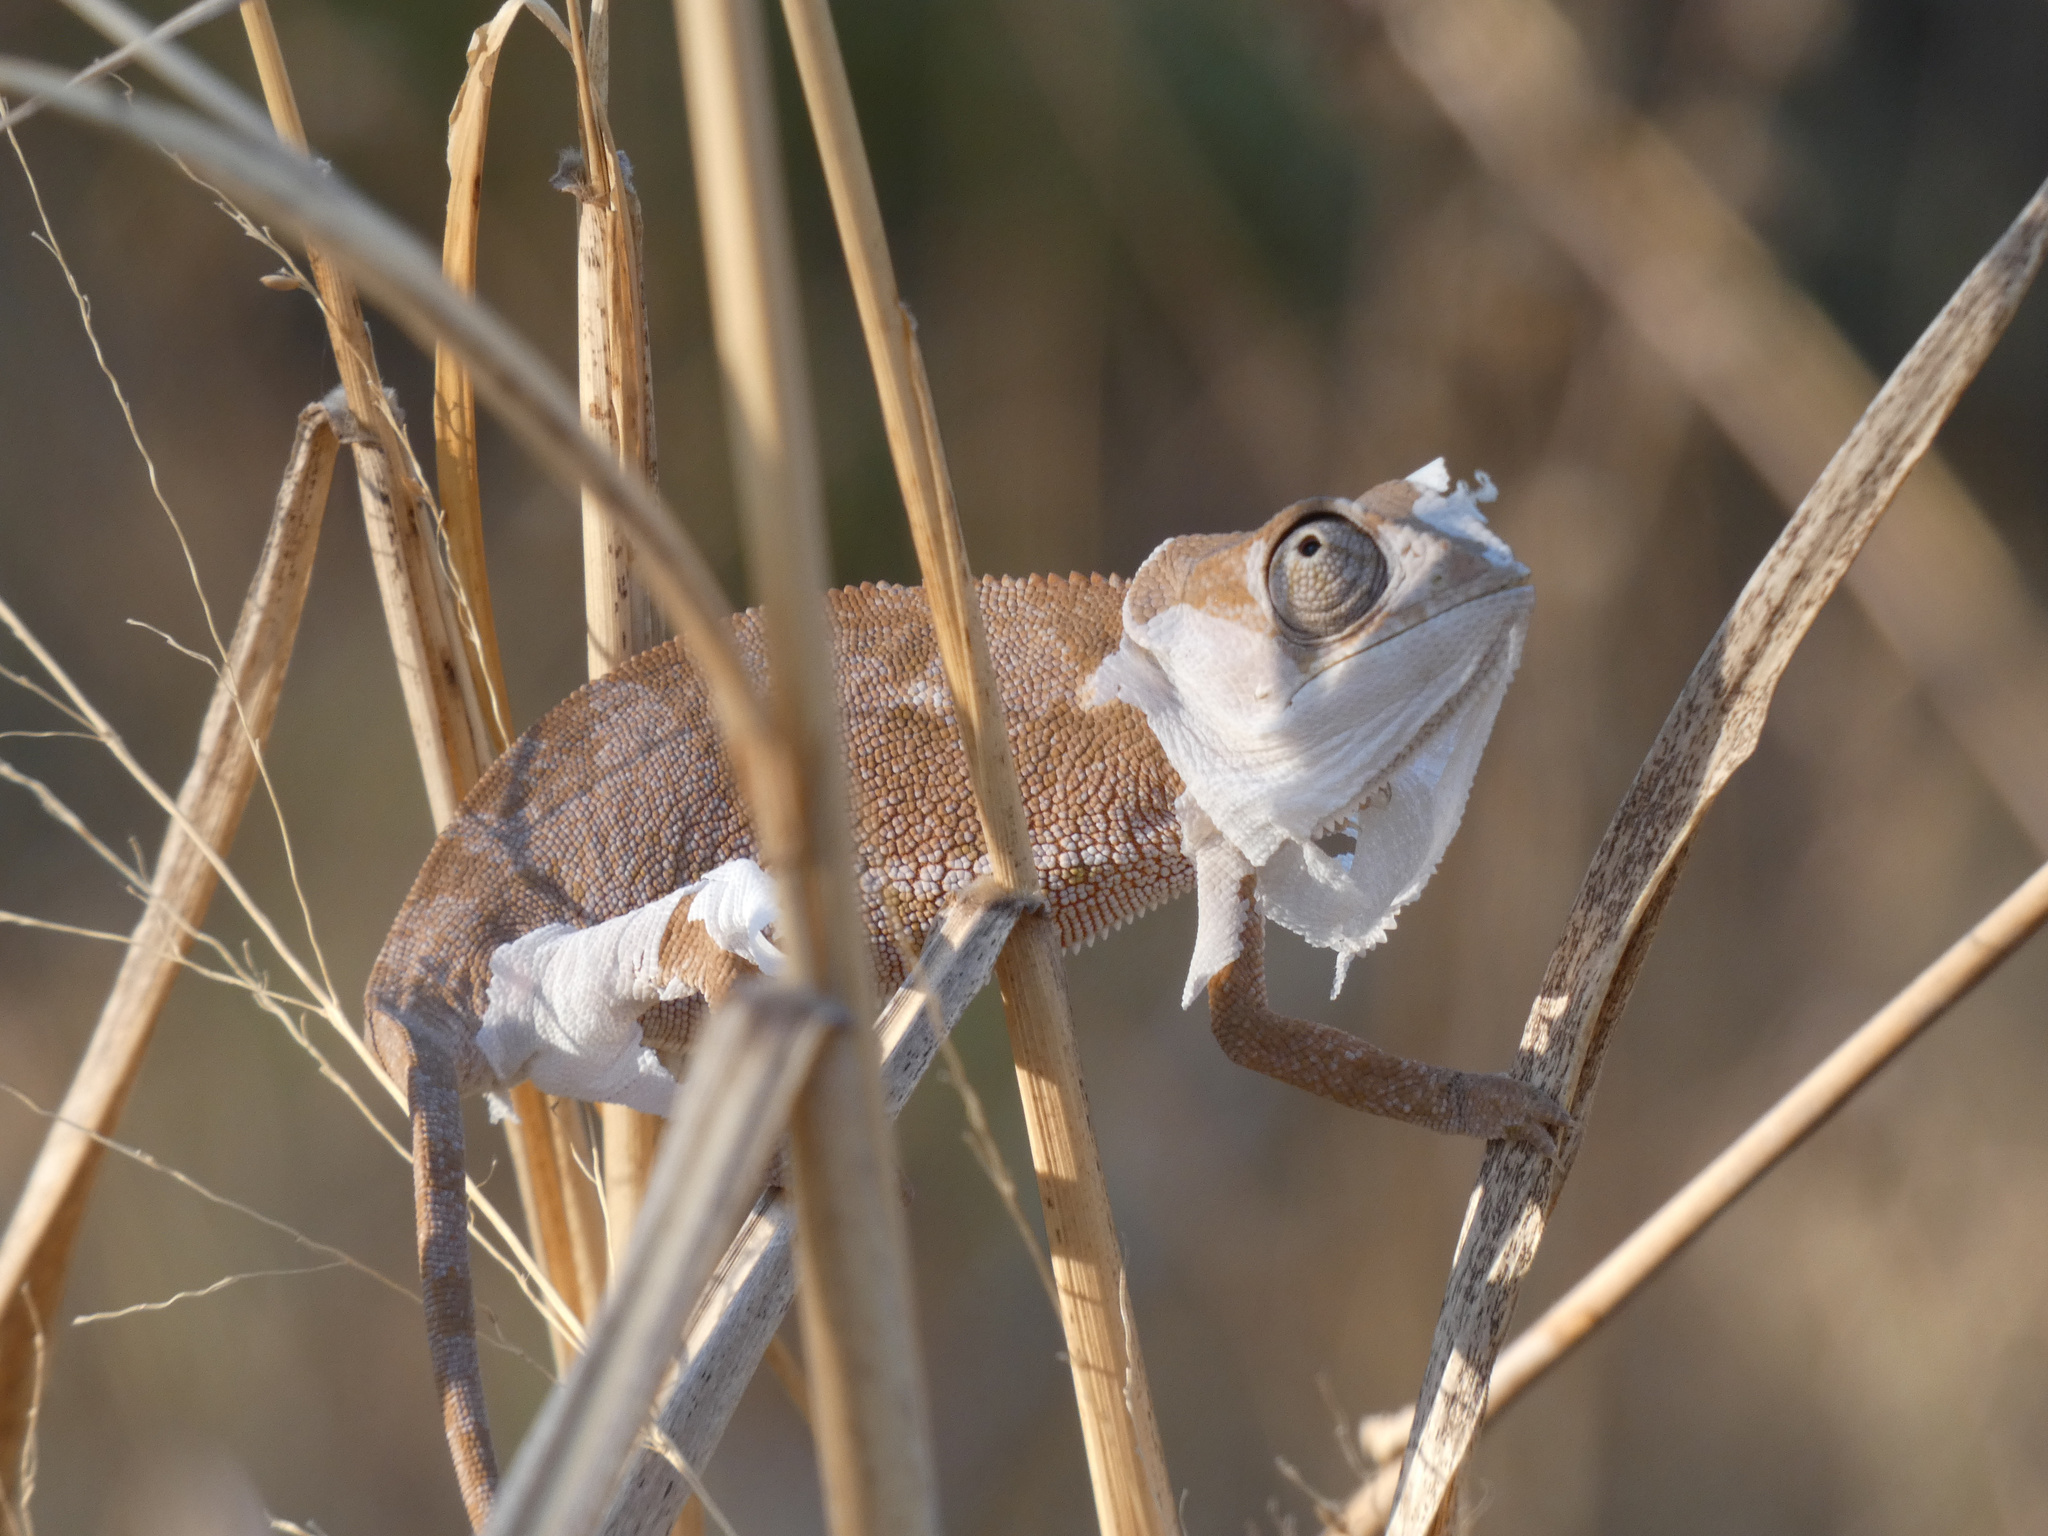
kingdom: Animalia
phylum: Chordata
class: Squamata
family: Chamaeleonidae
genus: Chamaeleo
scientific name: Chamaeleo dilepis
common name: Flapneck chameleon
